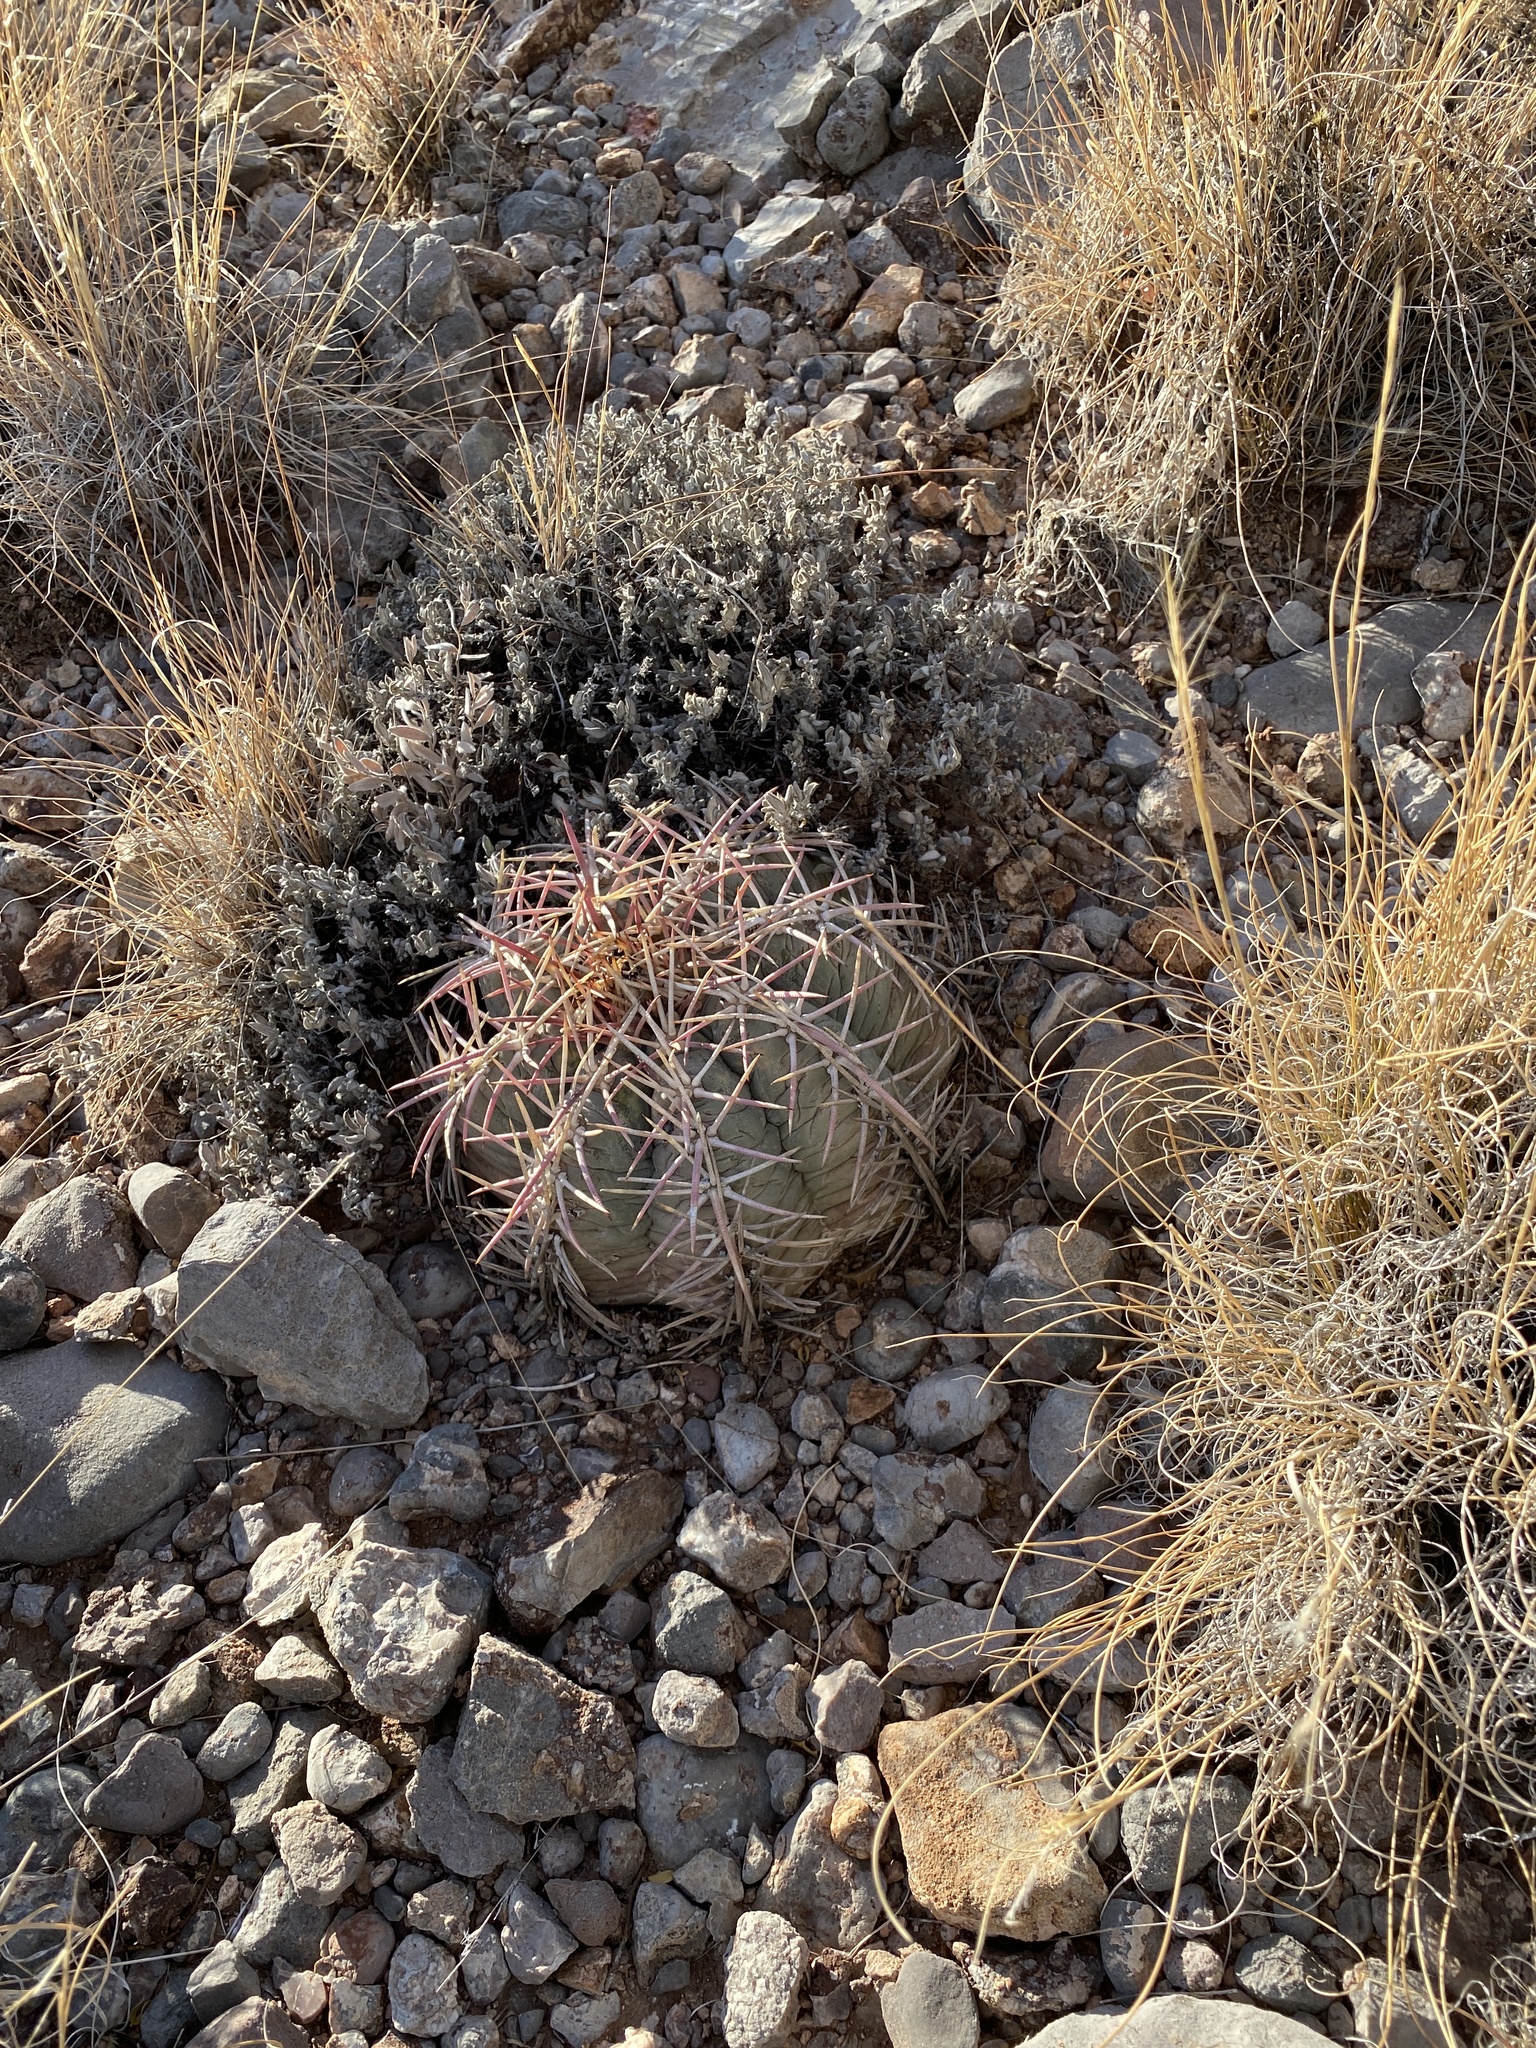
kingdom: Plantae
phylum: Tracheophyta
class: Magnoliopsida
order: Caryophyllales
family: Cactaceae
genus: Echinocactus
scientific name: Echinocactus horizonthalonius
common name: Devilshead
